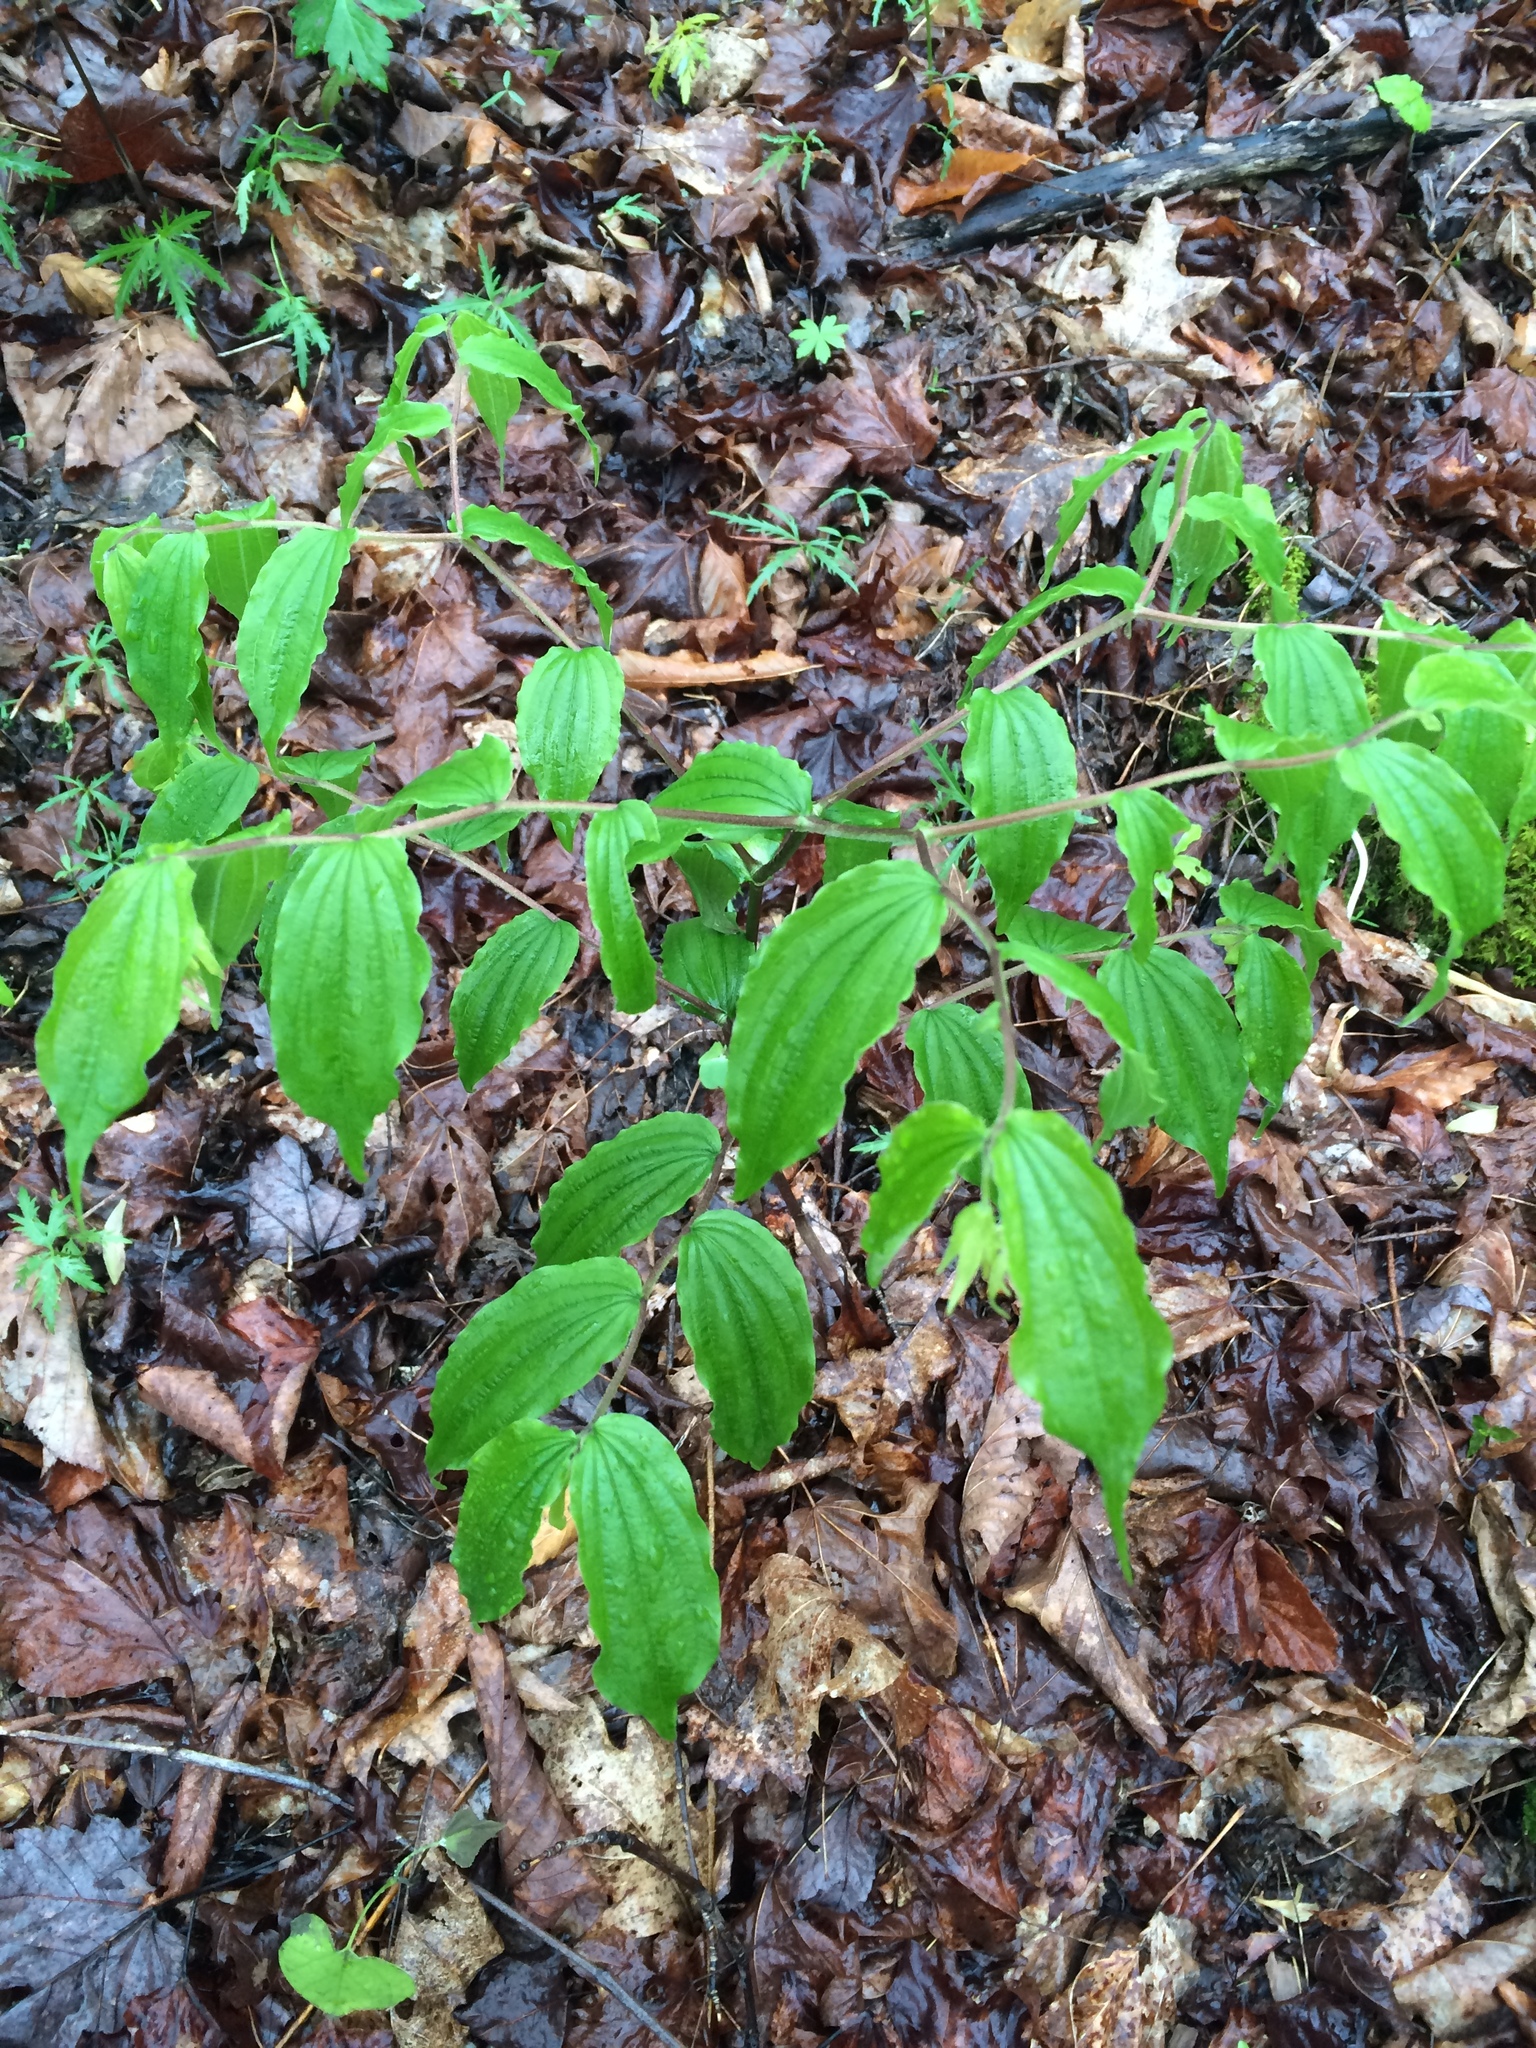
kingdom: Plantae
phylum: Tracheophyta
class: Liliopsida
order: Liliales
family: Liliaceae
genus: Prosartes
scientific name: Prosartes lanuginosa
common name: Hairy mandarin
